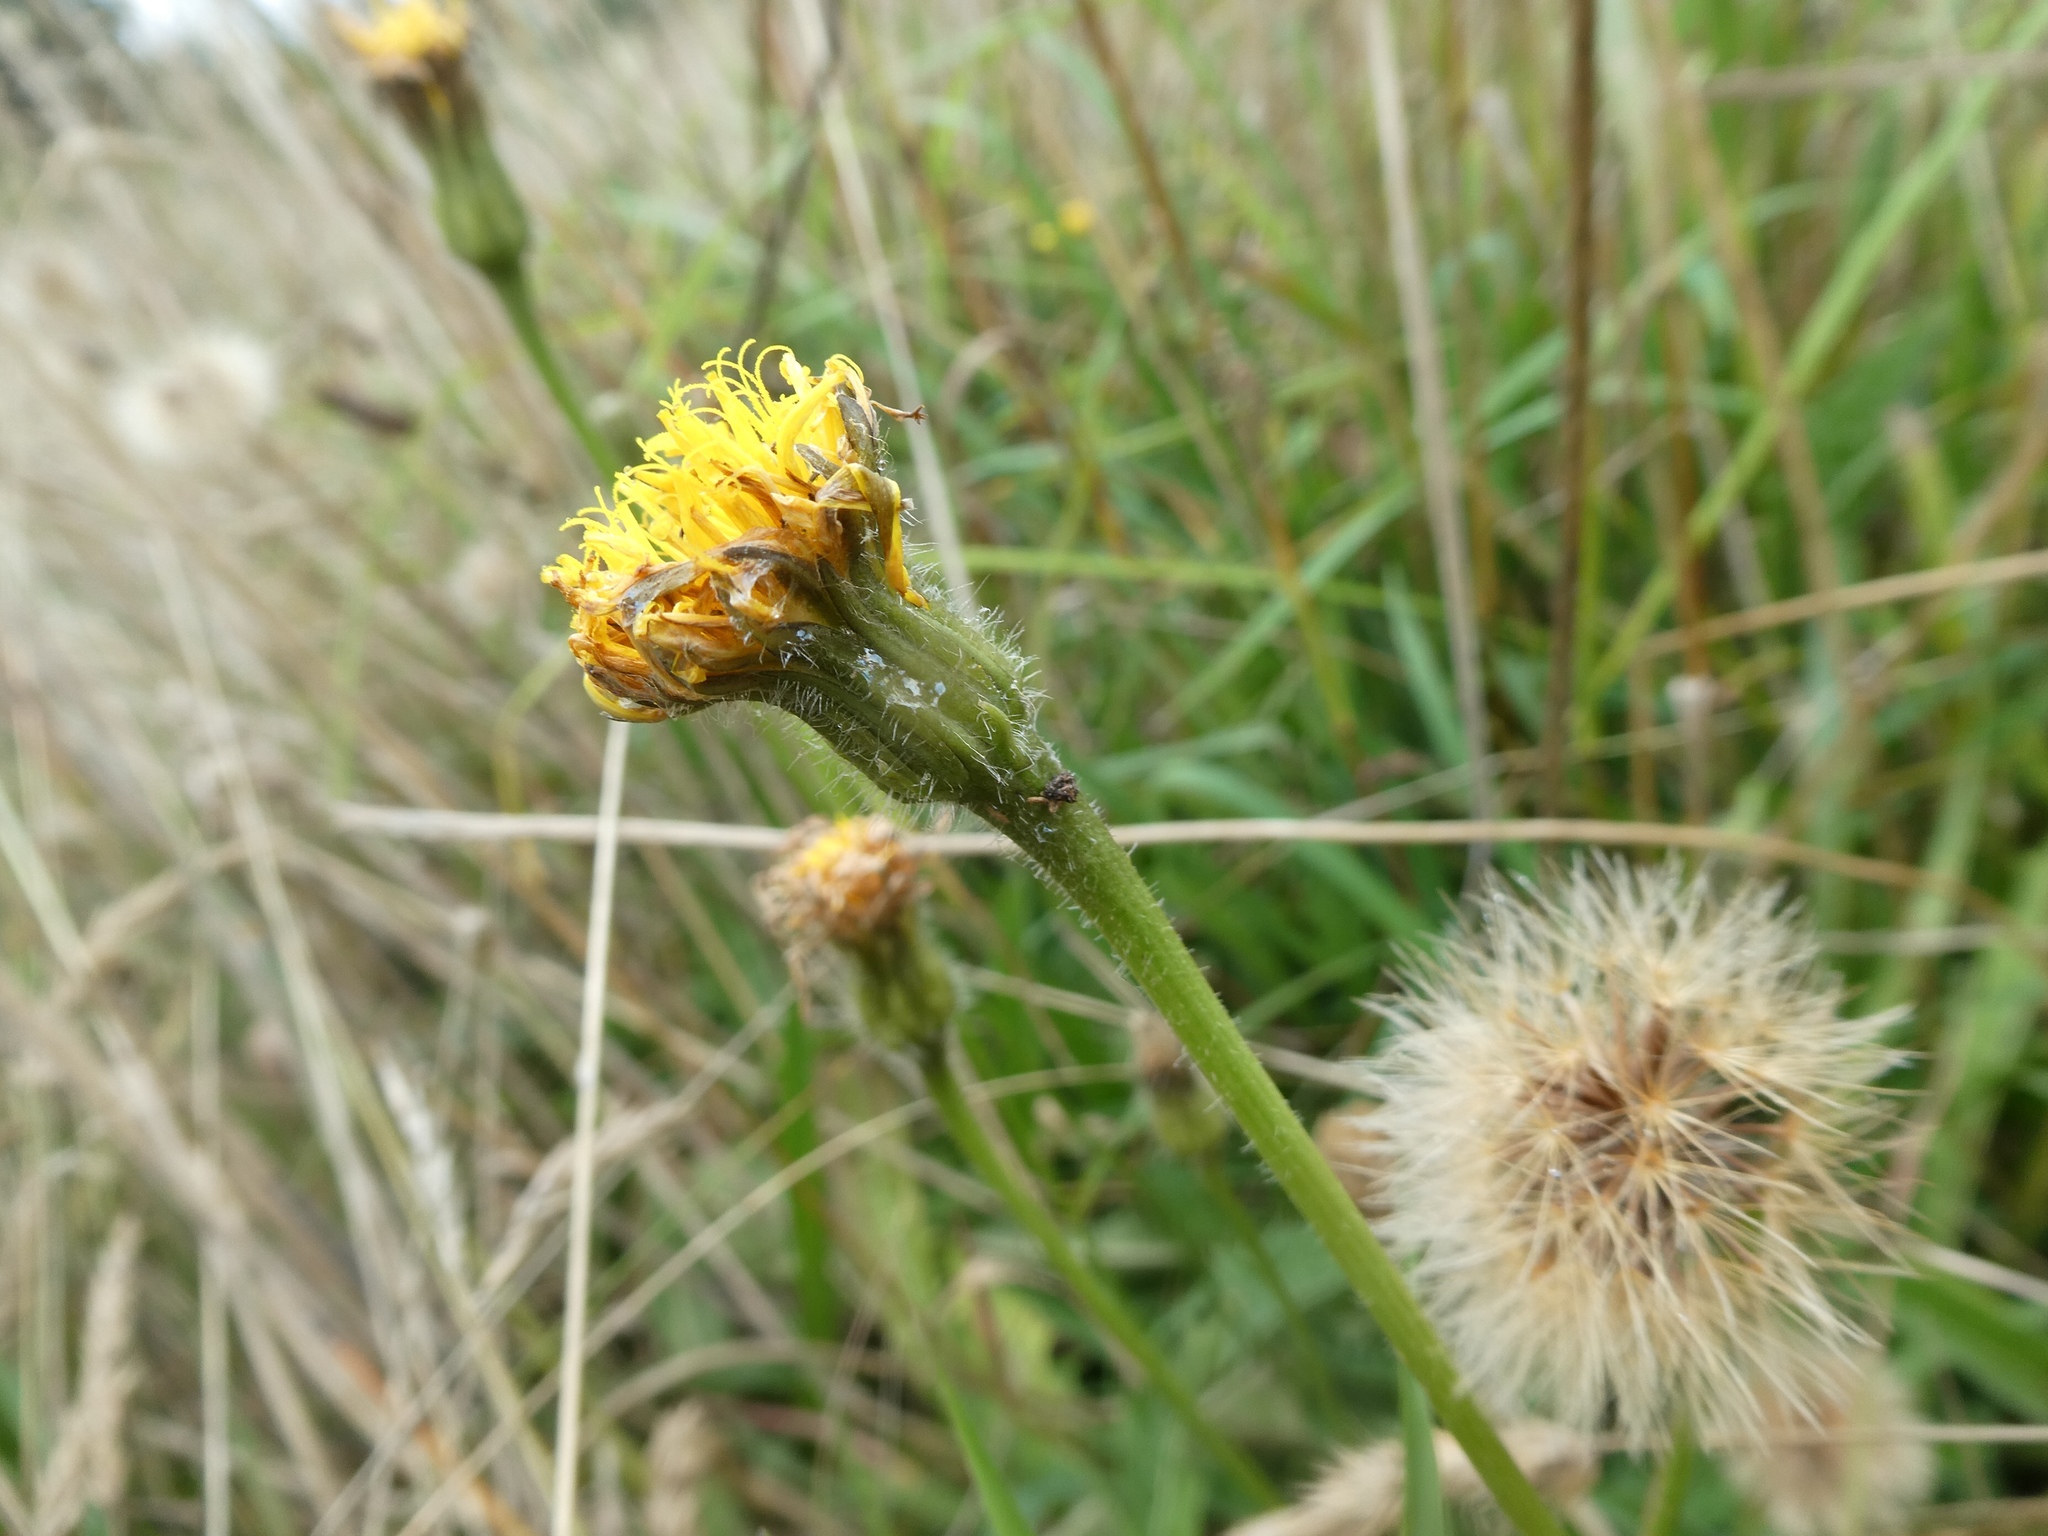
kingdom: Plantae
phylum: Tracheophyta
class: Magnoliopsida
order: Asterales
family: Asteraceae
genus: Leontodon
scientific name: Leontodon hispidus
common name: Rough hawkbit
